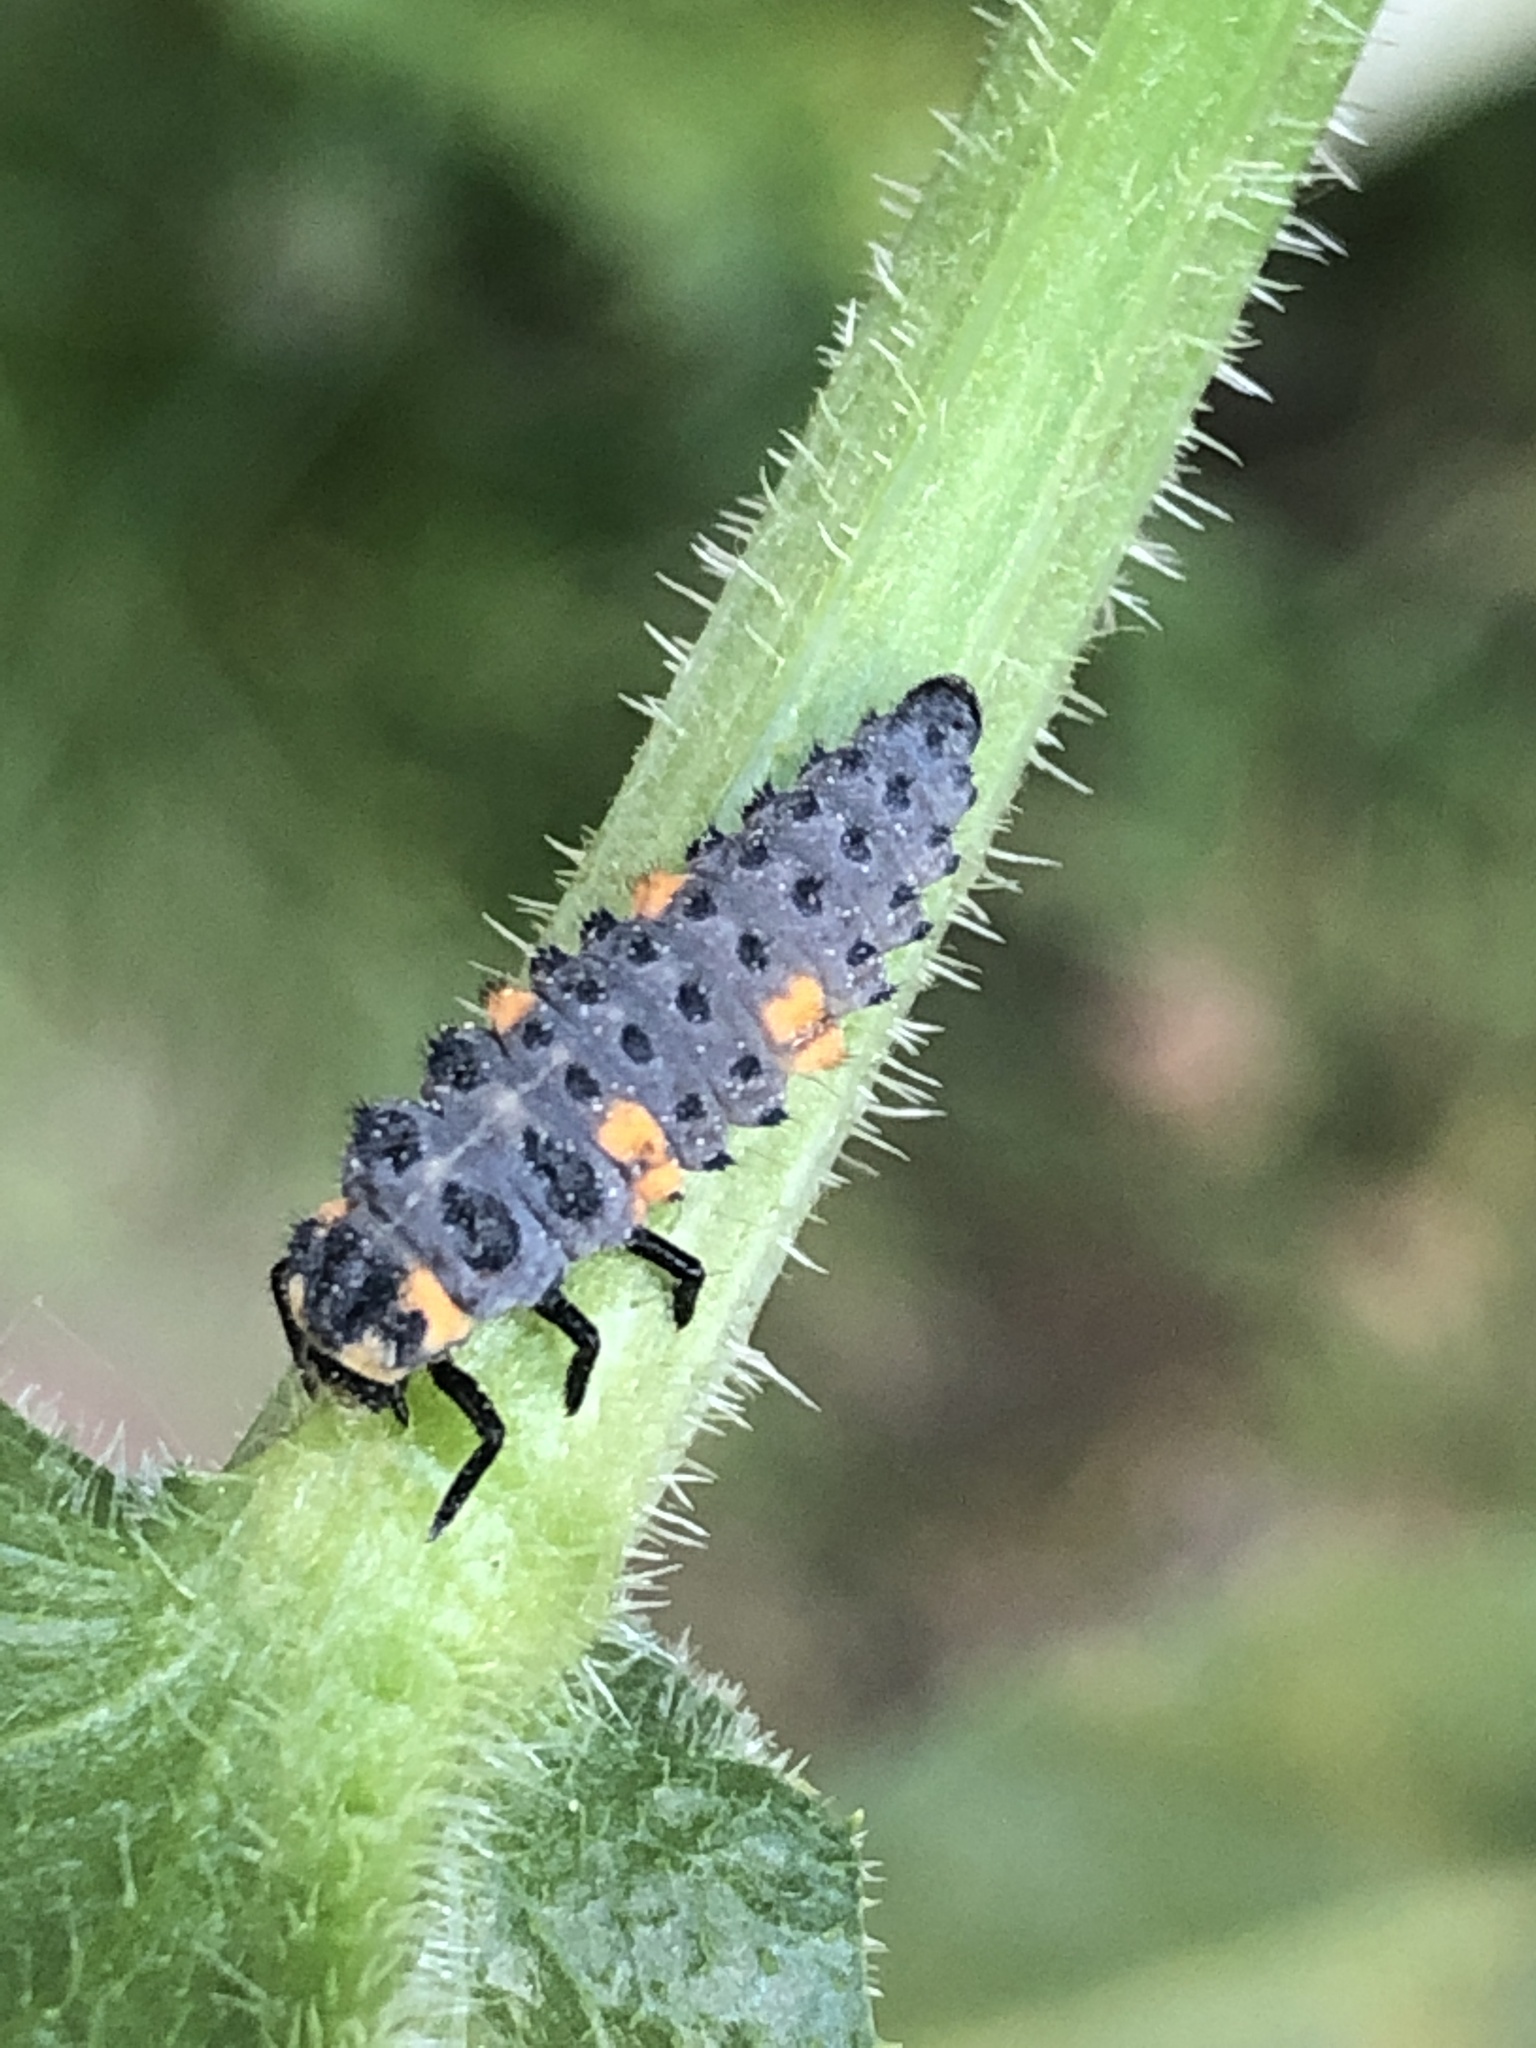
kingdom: Animalia
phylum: Arthropoda
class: Insecta
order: Coleoptera
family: Coccinellidae
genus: Coccinella
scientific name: Coccinella septempunctata
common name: Sevenspotted lady beetle
